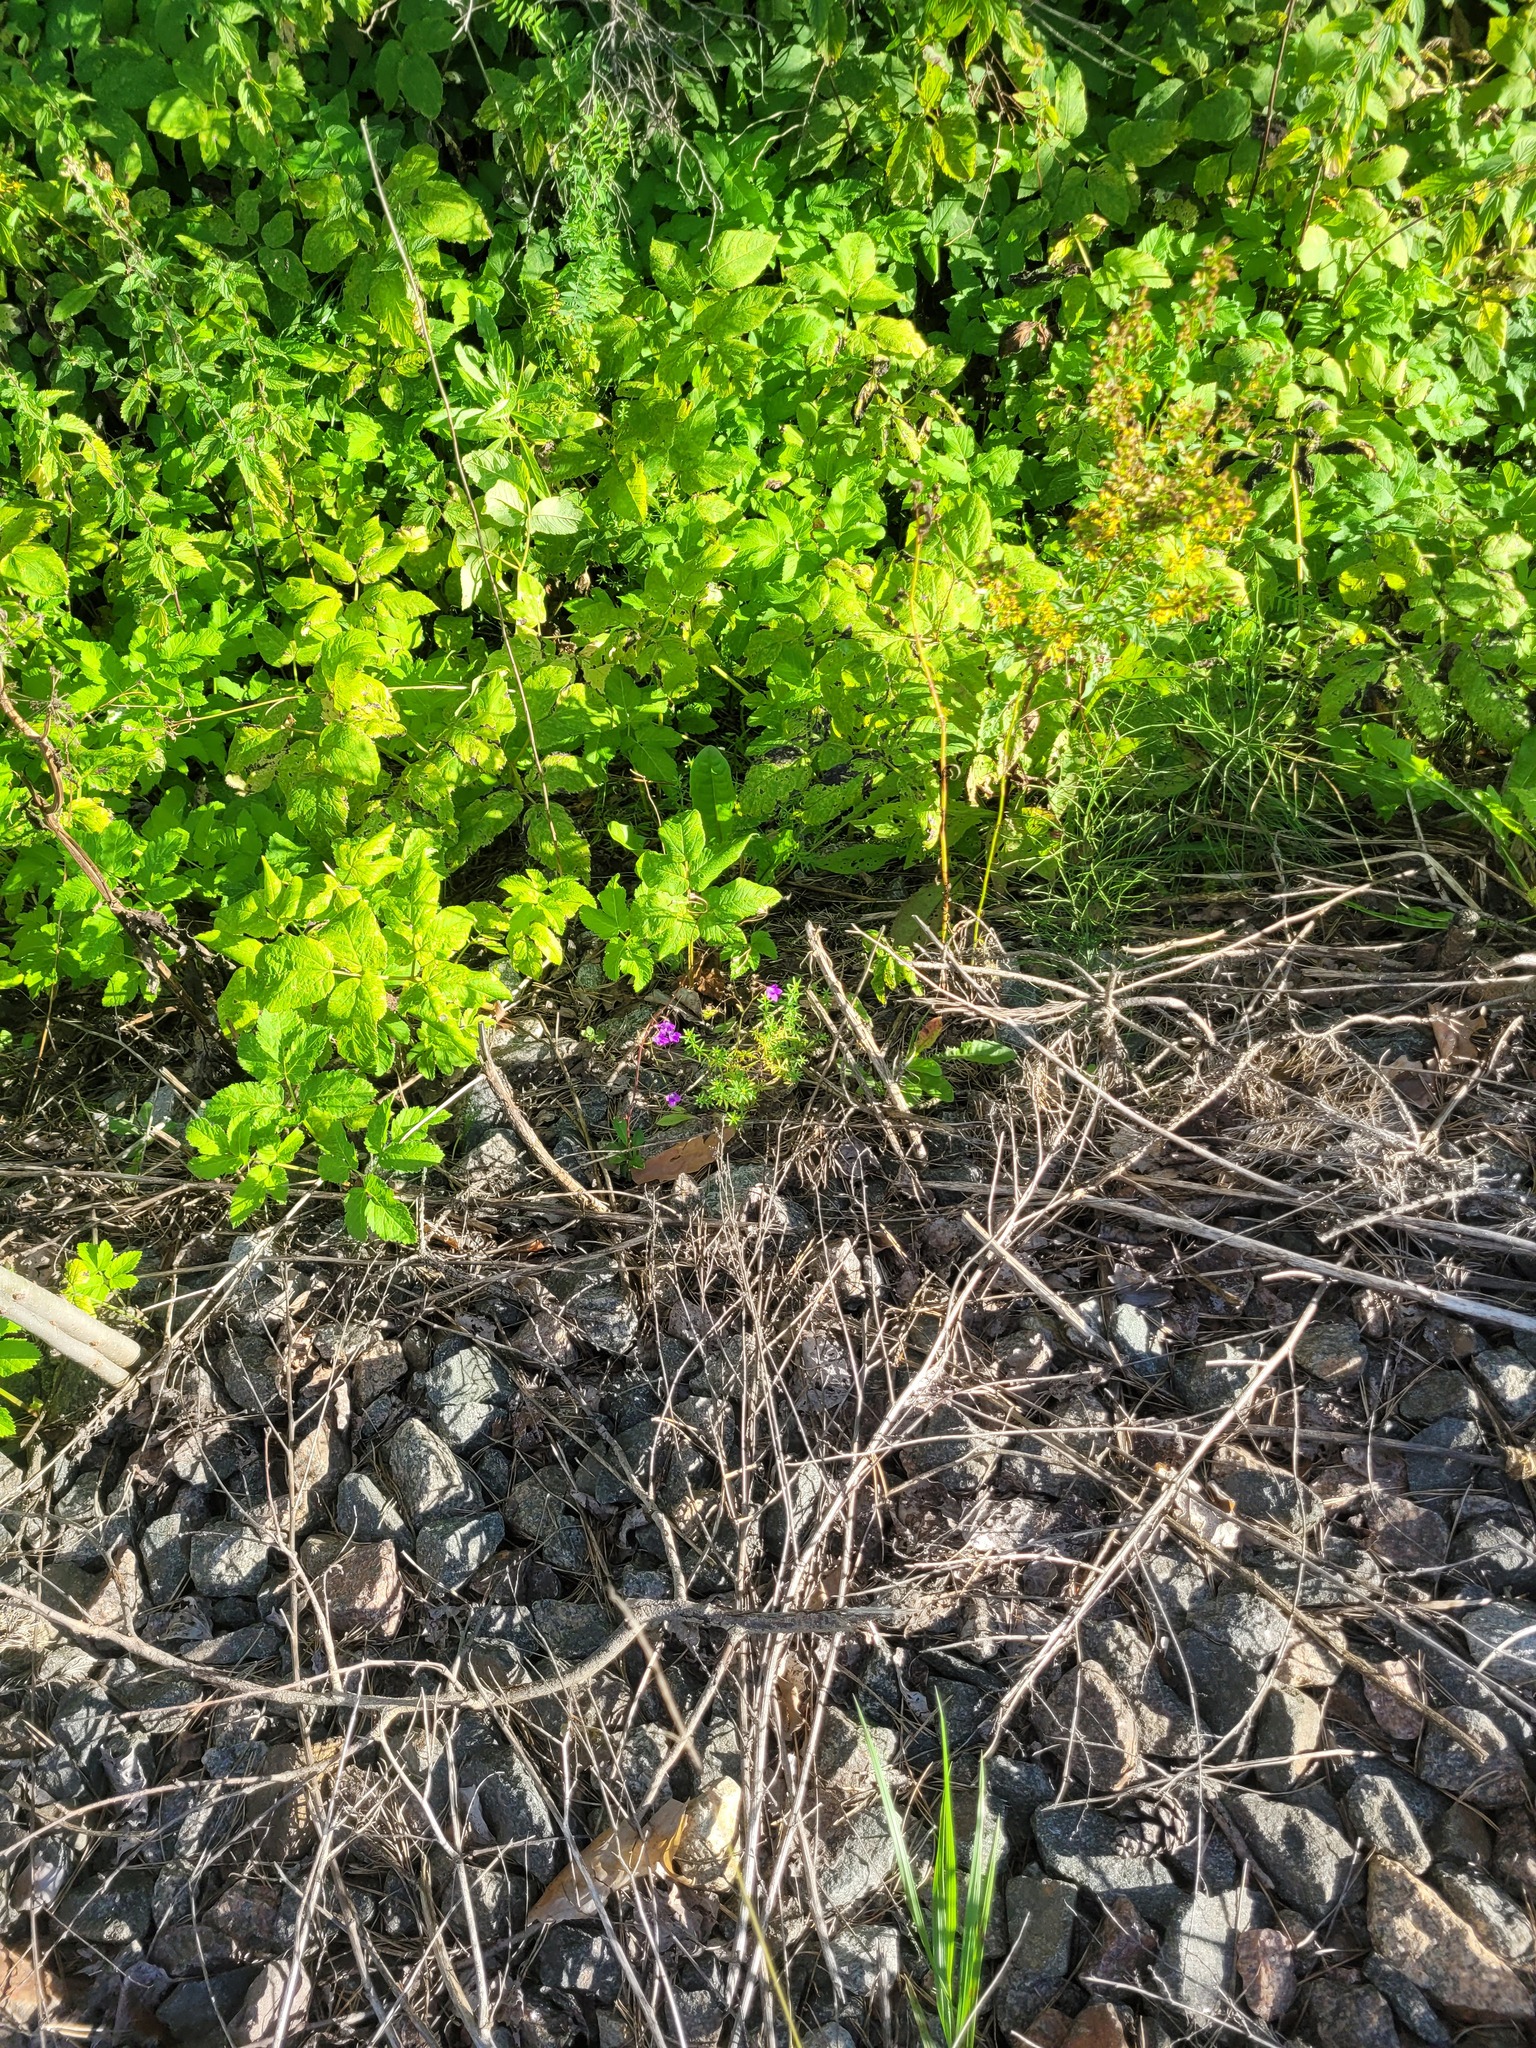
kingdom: Plantae
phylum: Tracheophyta
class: Magnoliopsida
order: Asterales
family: Campanulaceae
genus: Campanula
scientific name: Campanula patula
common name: Spreading bellflower
